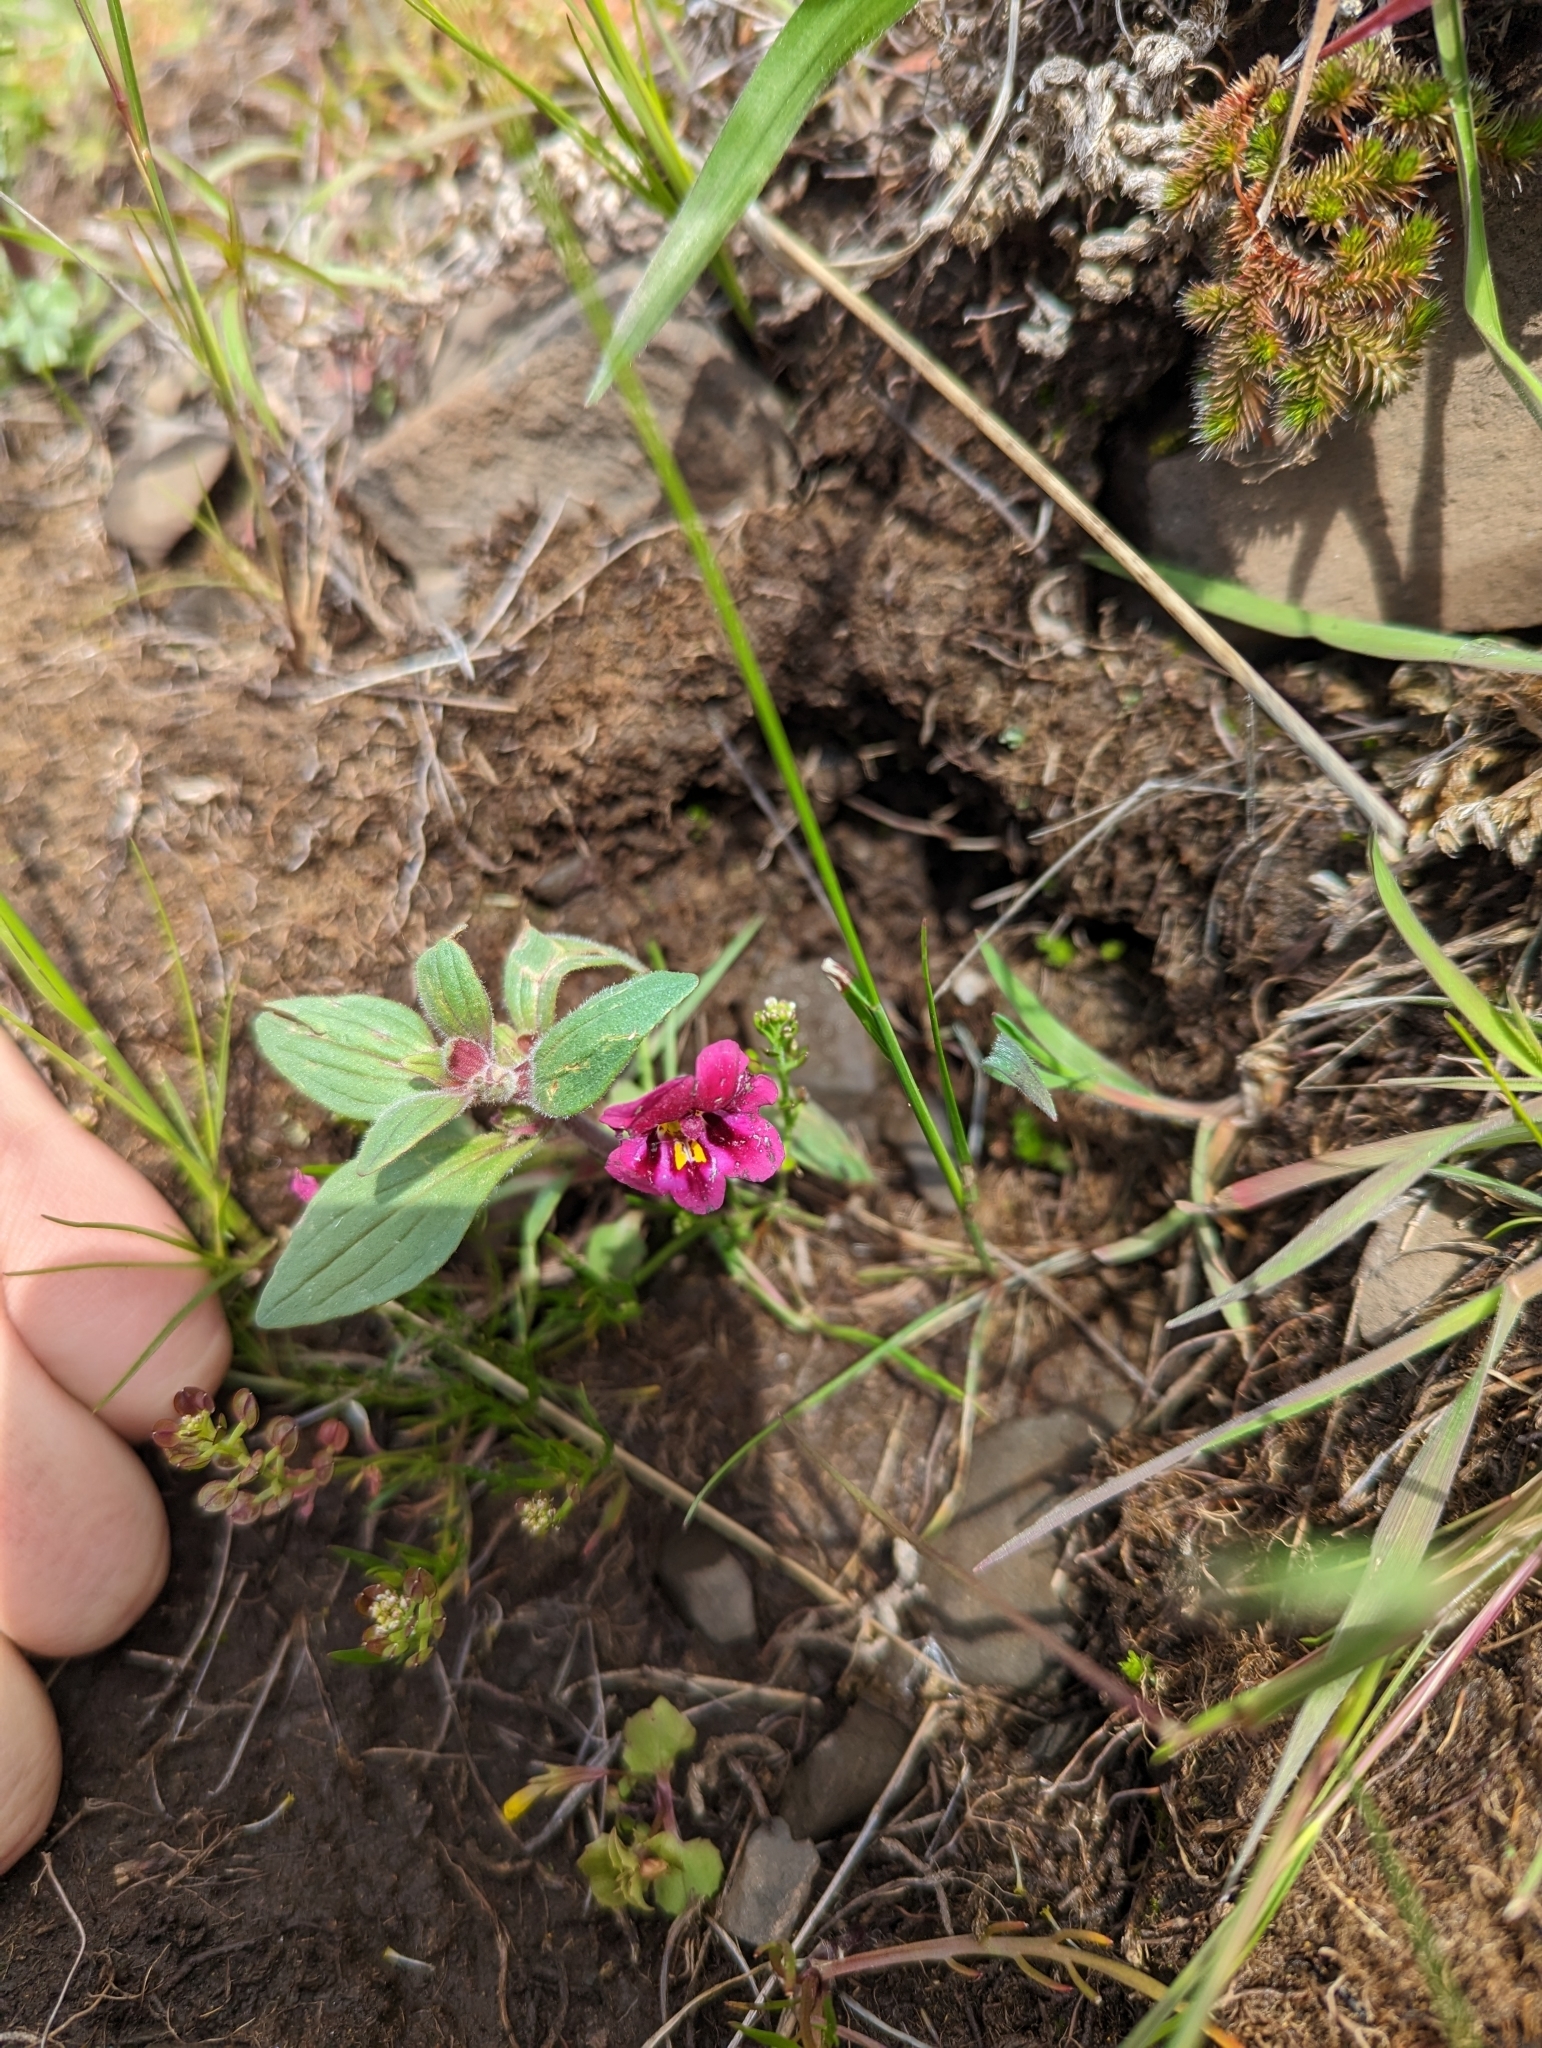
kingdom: Plantae
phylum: Tracheophyta
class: Magnoliopsida
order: Lamiales
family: Phrymaceae
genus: Diplacus
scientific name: Diplacus kelloggii
